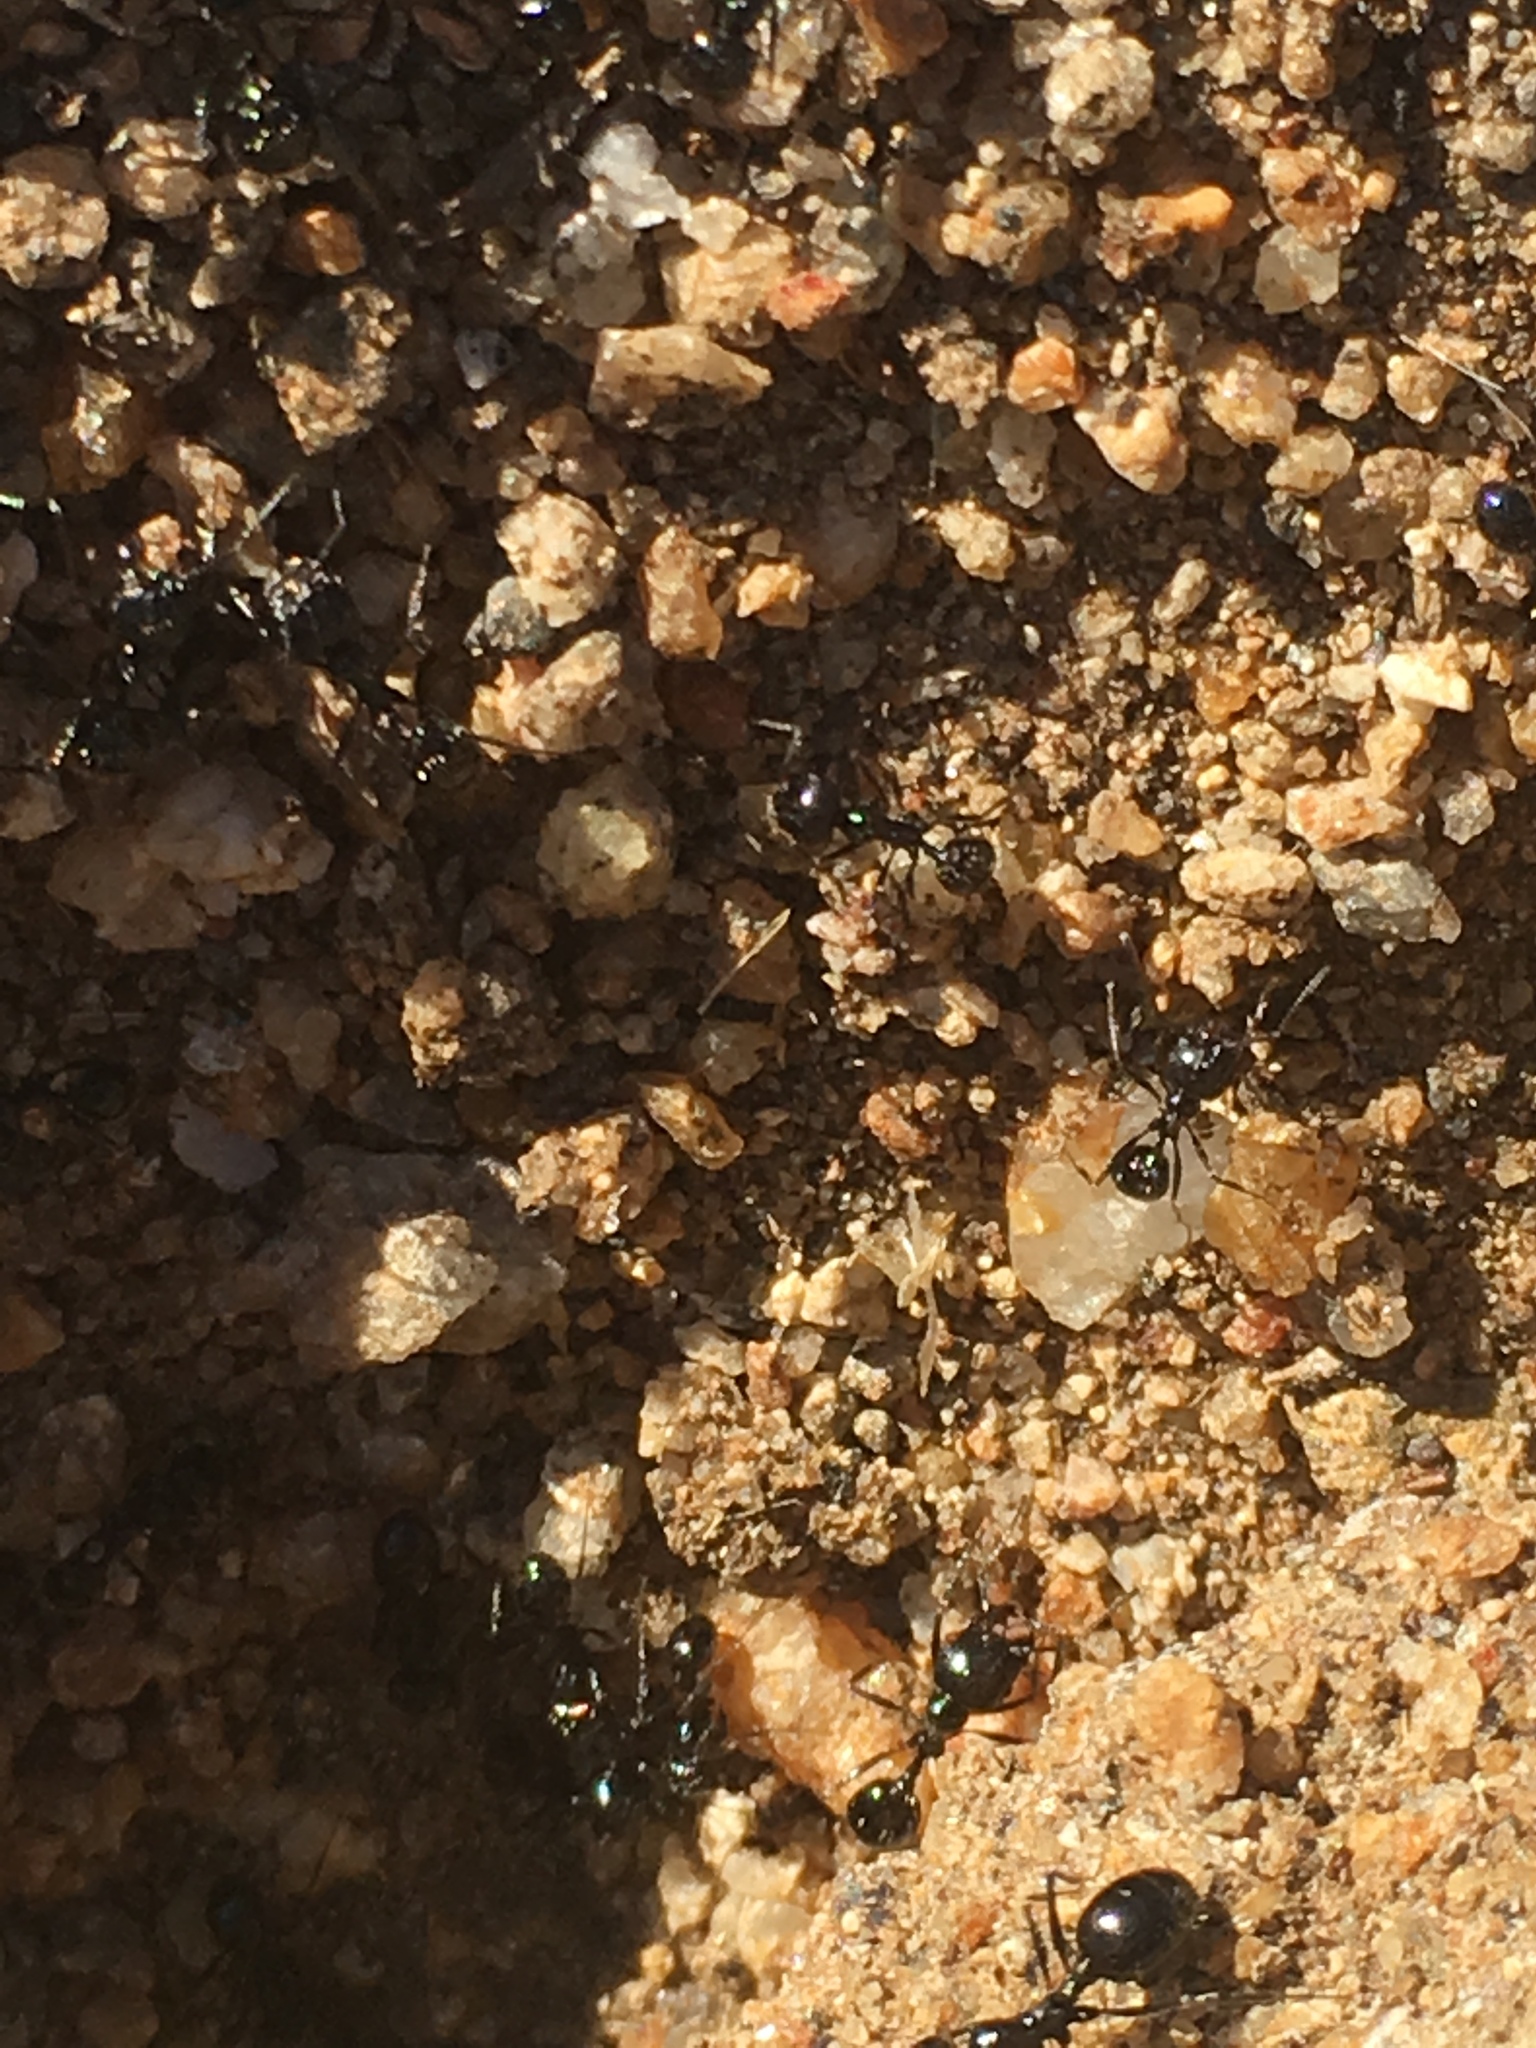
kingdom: Animalia
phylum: Arthropoda
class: Insecta
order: Hymenoptera
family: Formicidae
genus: Messor
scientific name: Messor pergandei
